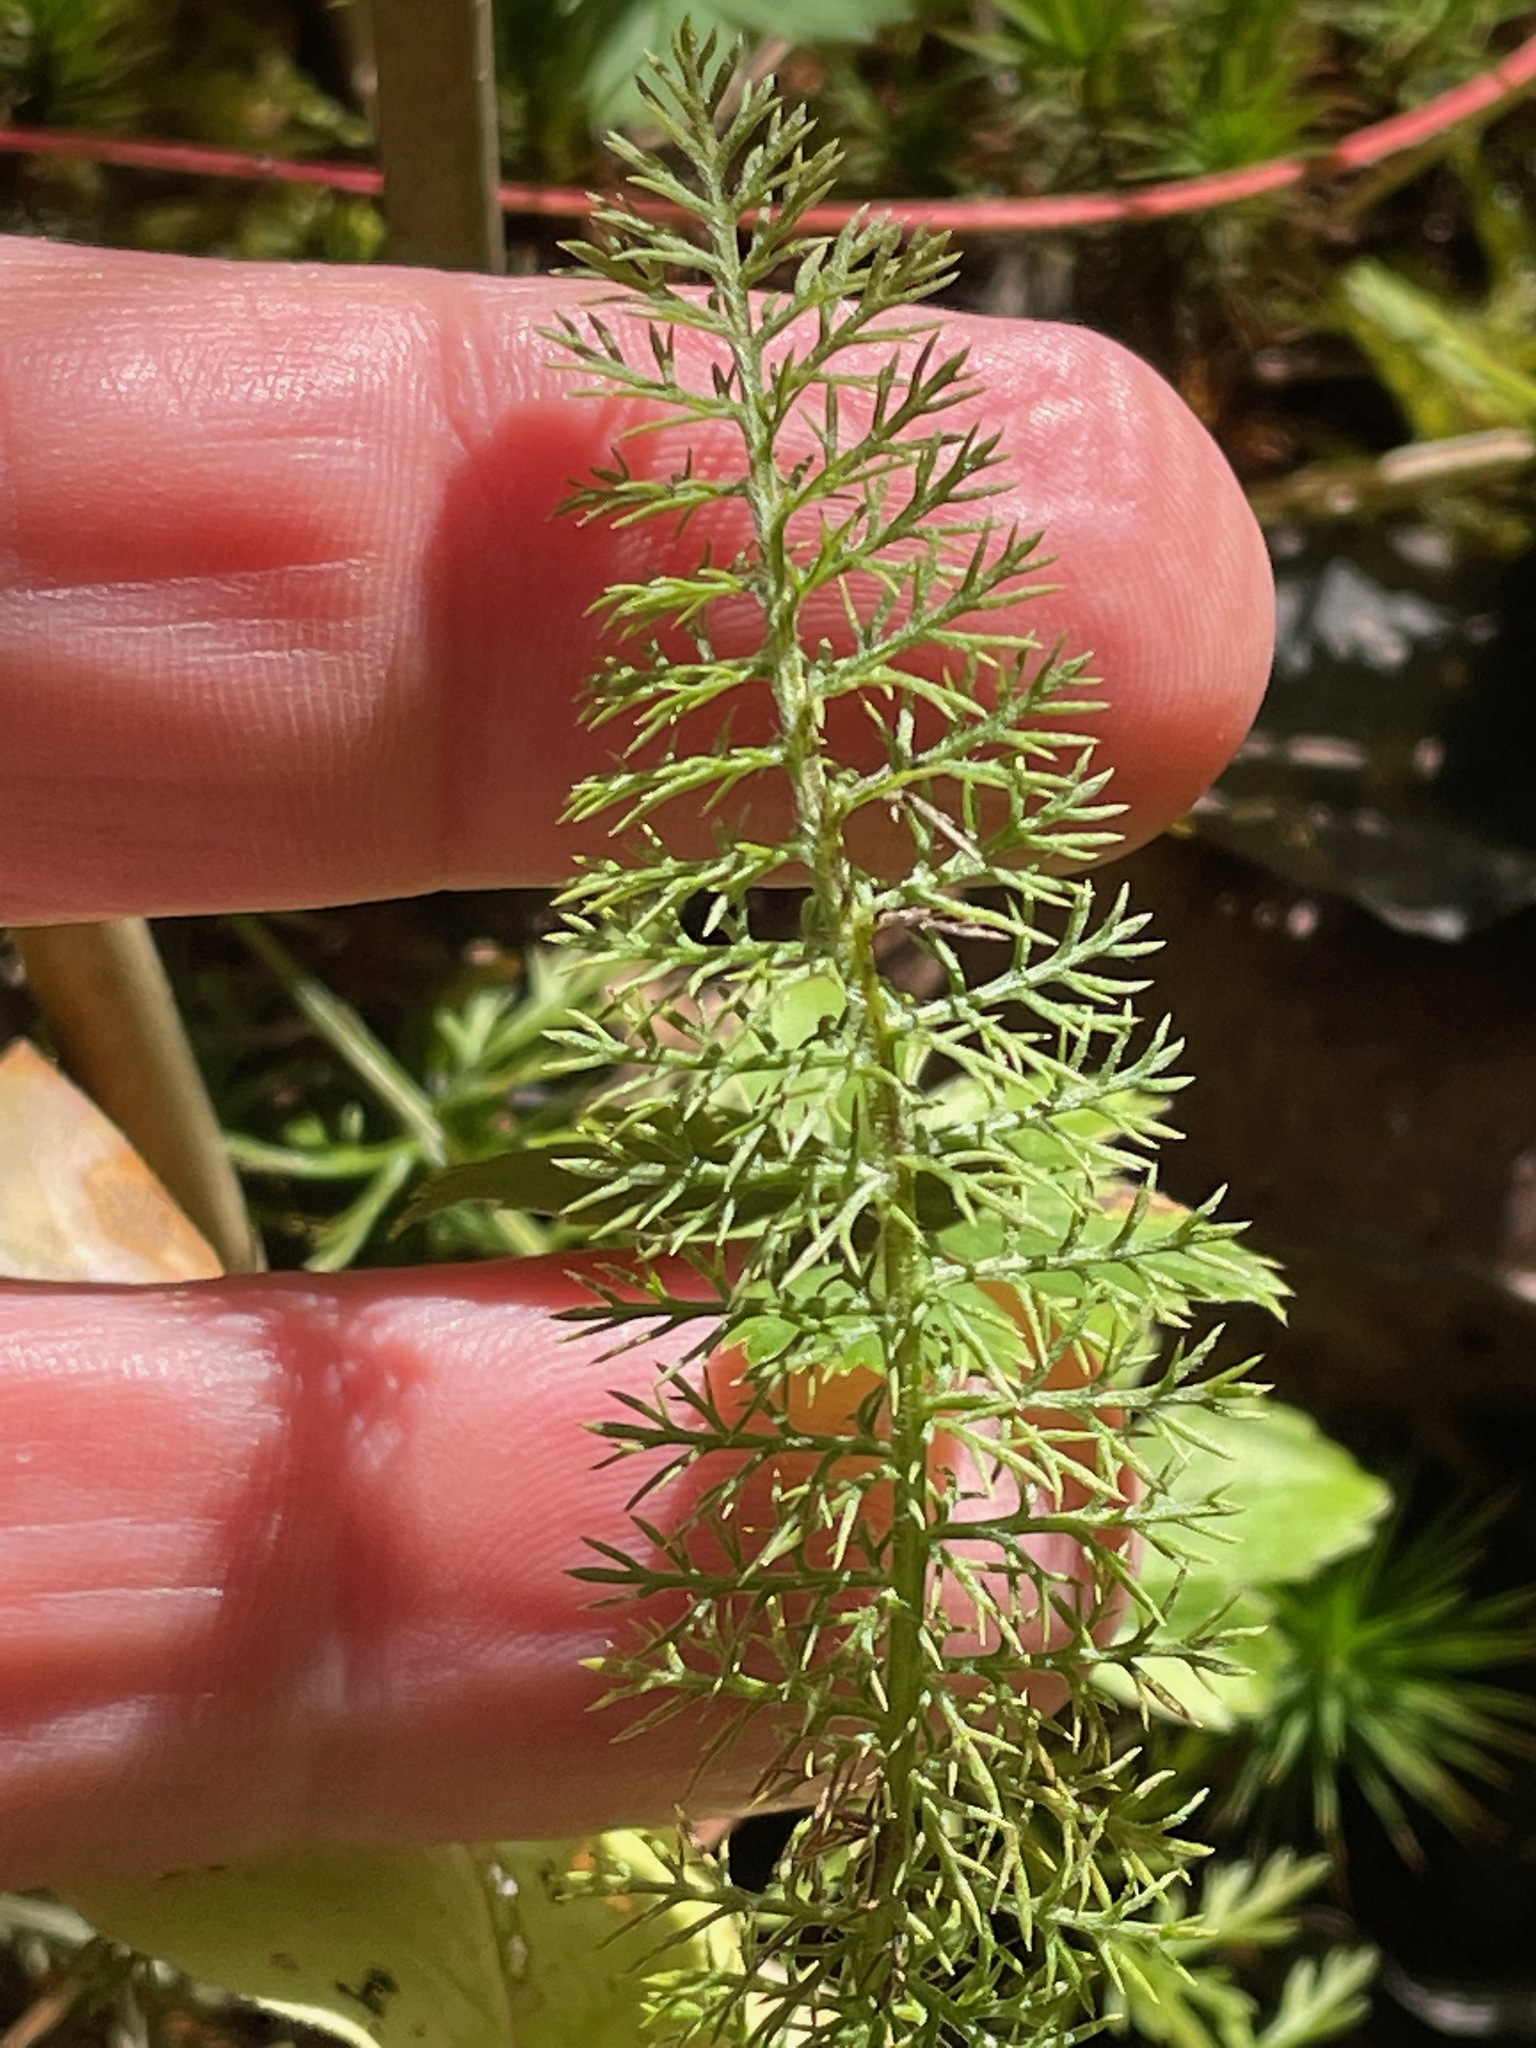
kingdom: Plantae
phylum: Tracheophyta
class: Magnoliopsida
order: Asterales
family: Asteraceae
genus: Achillea
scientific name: Achillea millefolium
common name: Yarrow
